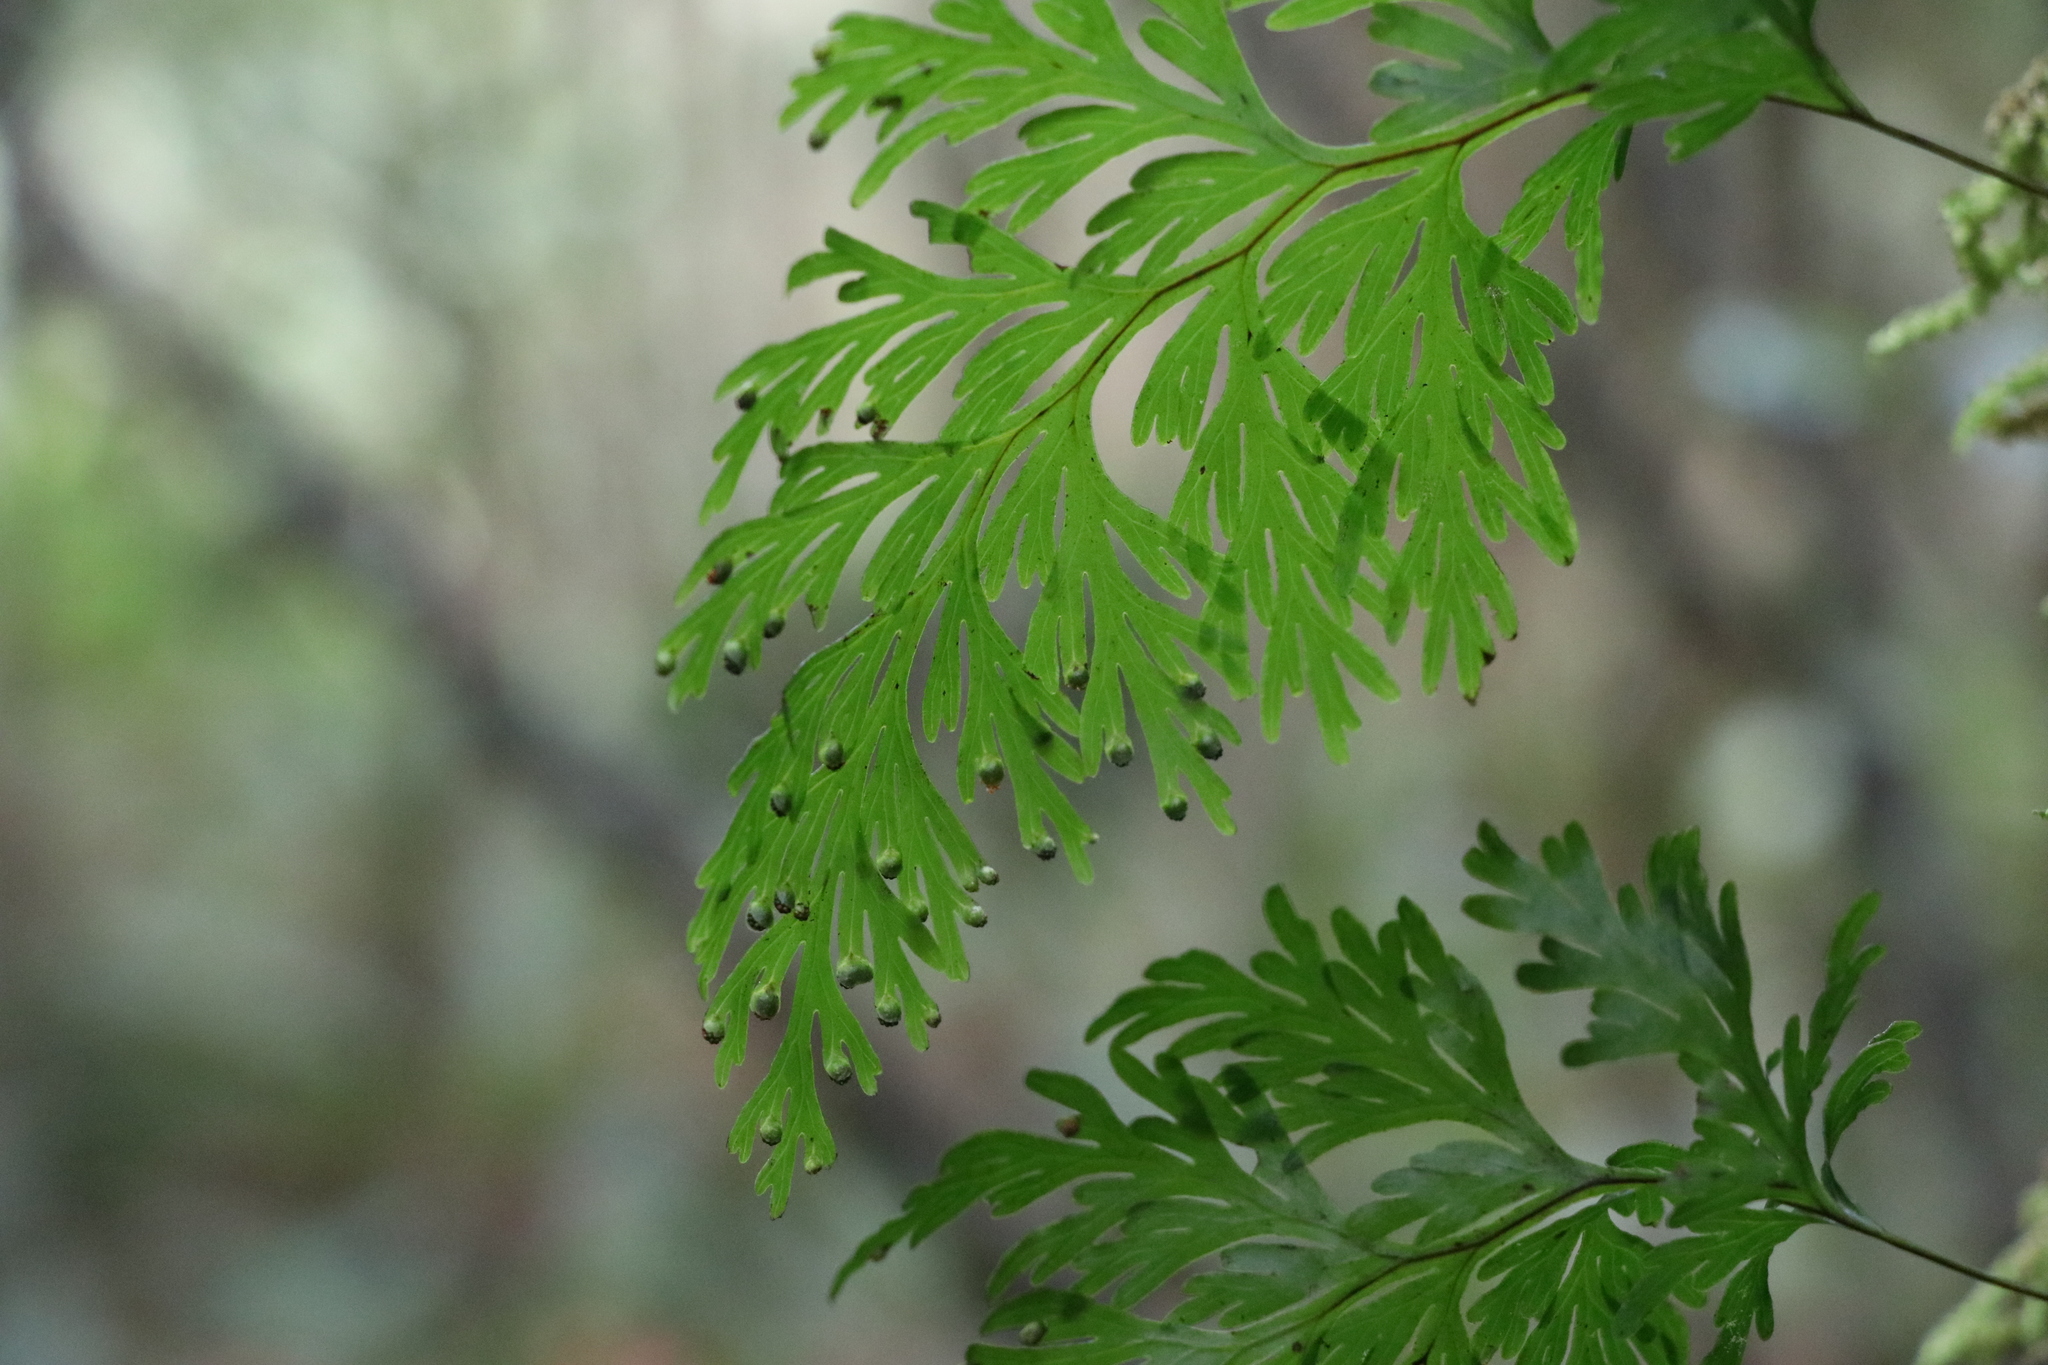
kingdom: Plantae
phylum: Tracheophyta
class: Polypodiopsida
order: Hymenophyllales
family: Hymenophyllaceae
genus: Hymenophyllum
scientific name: Hymenophyllum dilatatum
